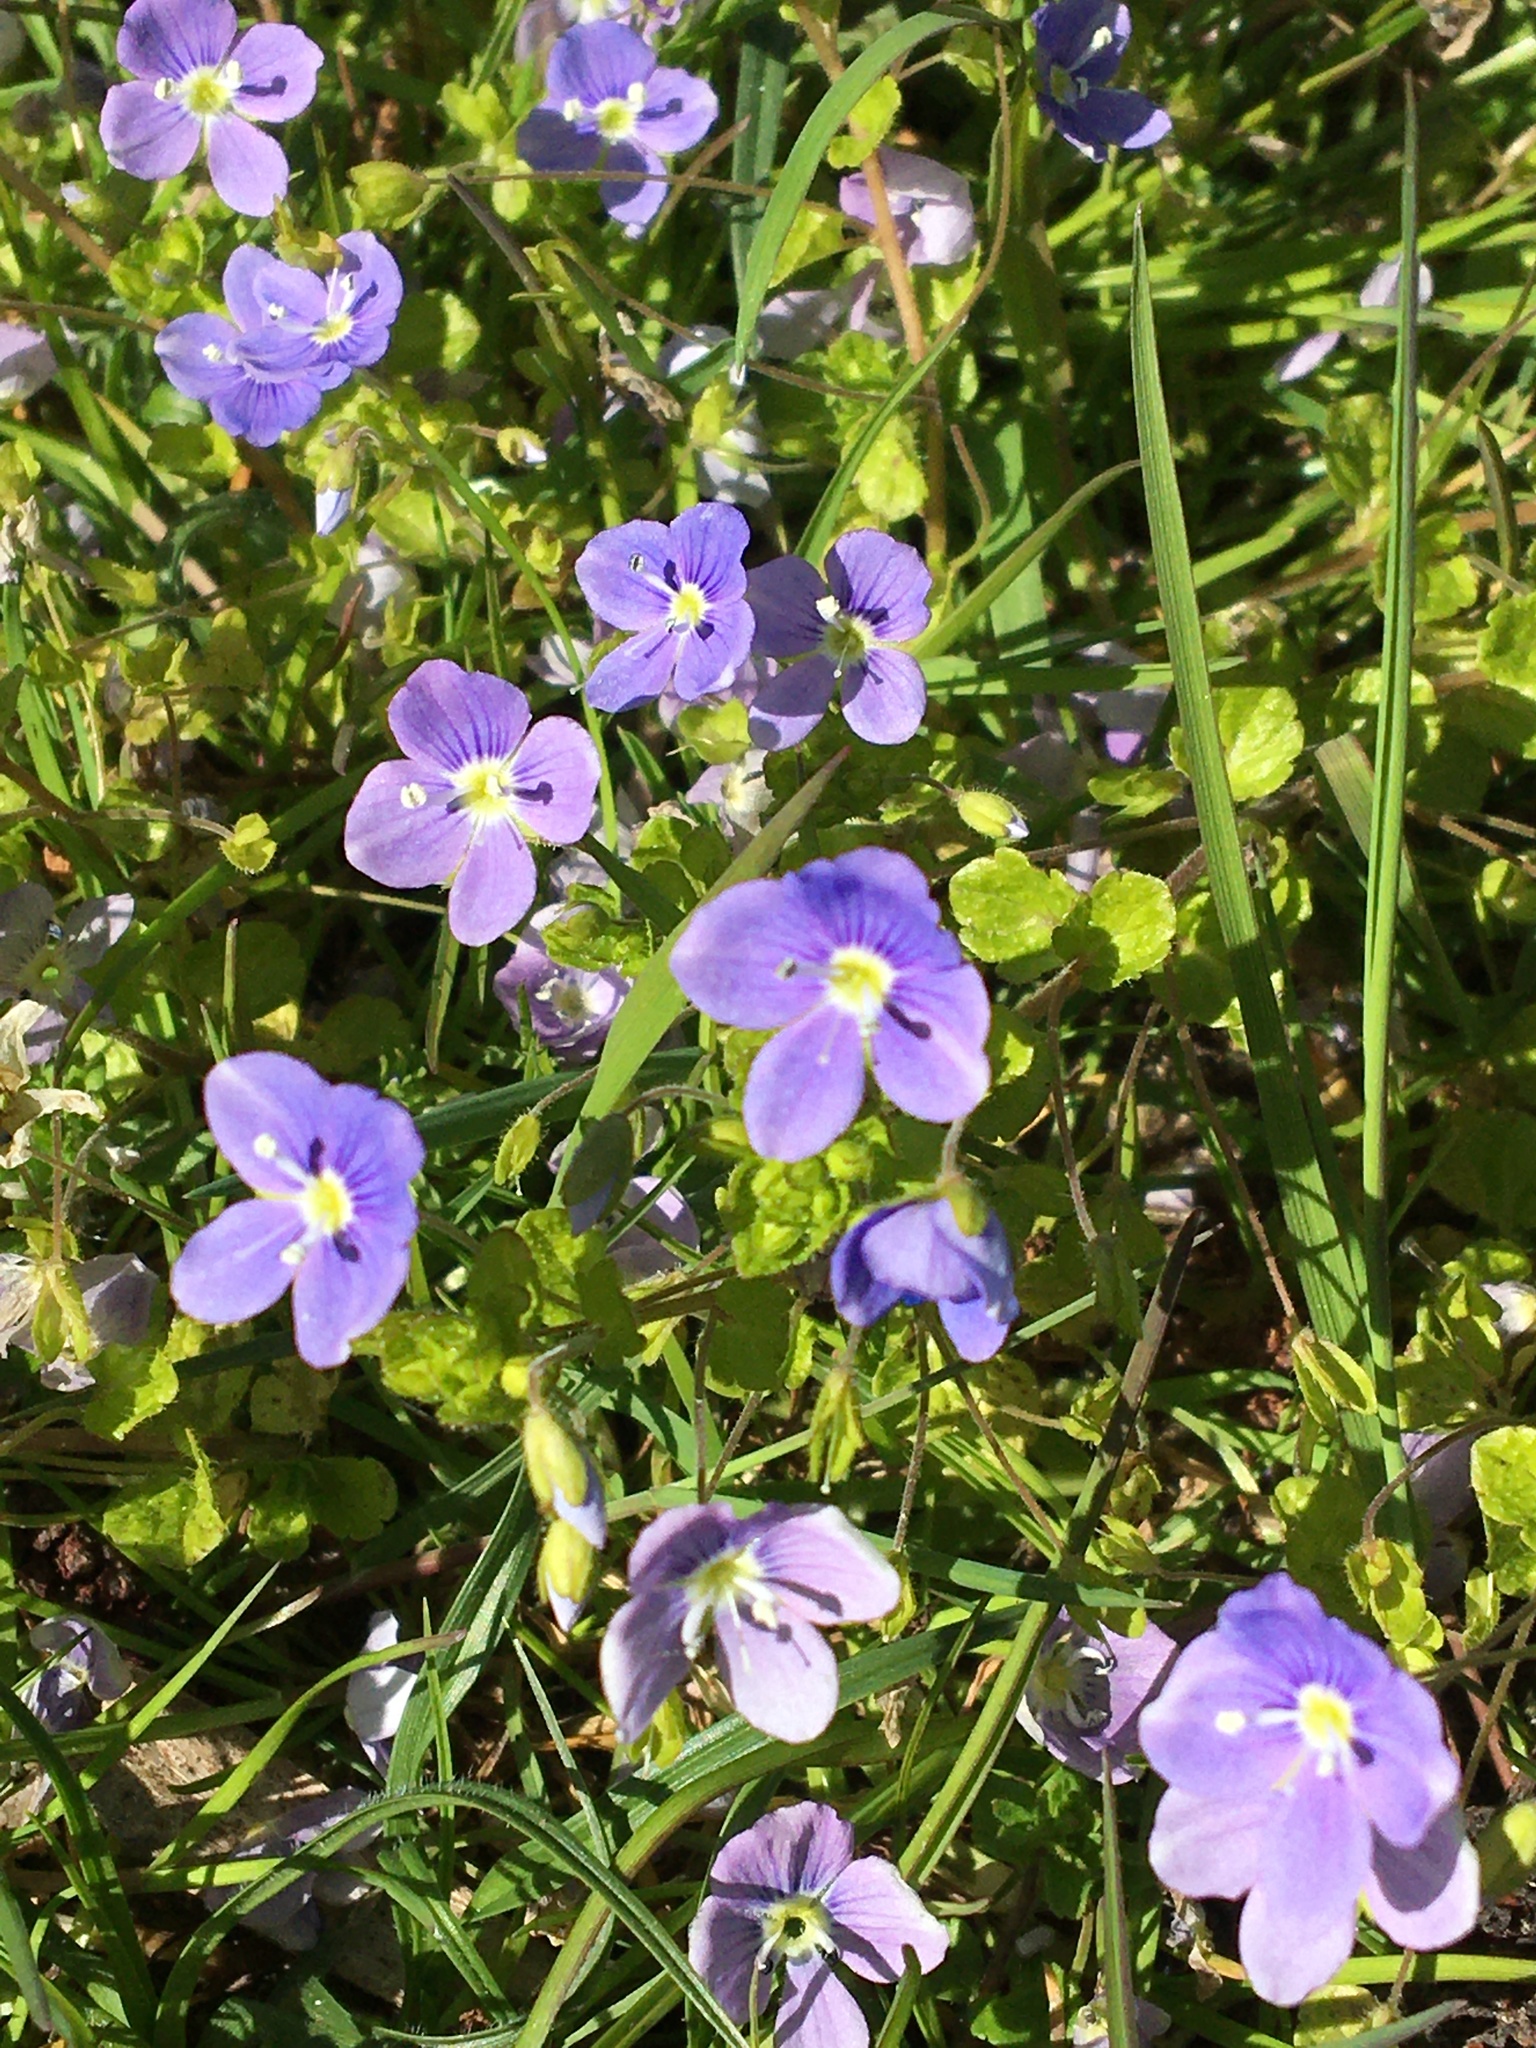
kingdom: Plantae
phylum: Tracheophyta
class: Magnoliopsida
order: Lamiales
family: Plantaginaceae
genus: Veronica
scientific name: Veronica filiformis
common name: Slender speedwell
